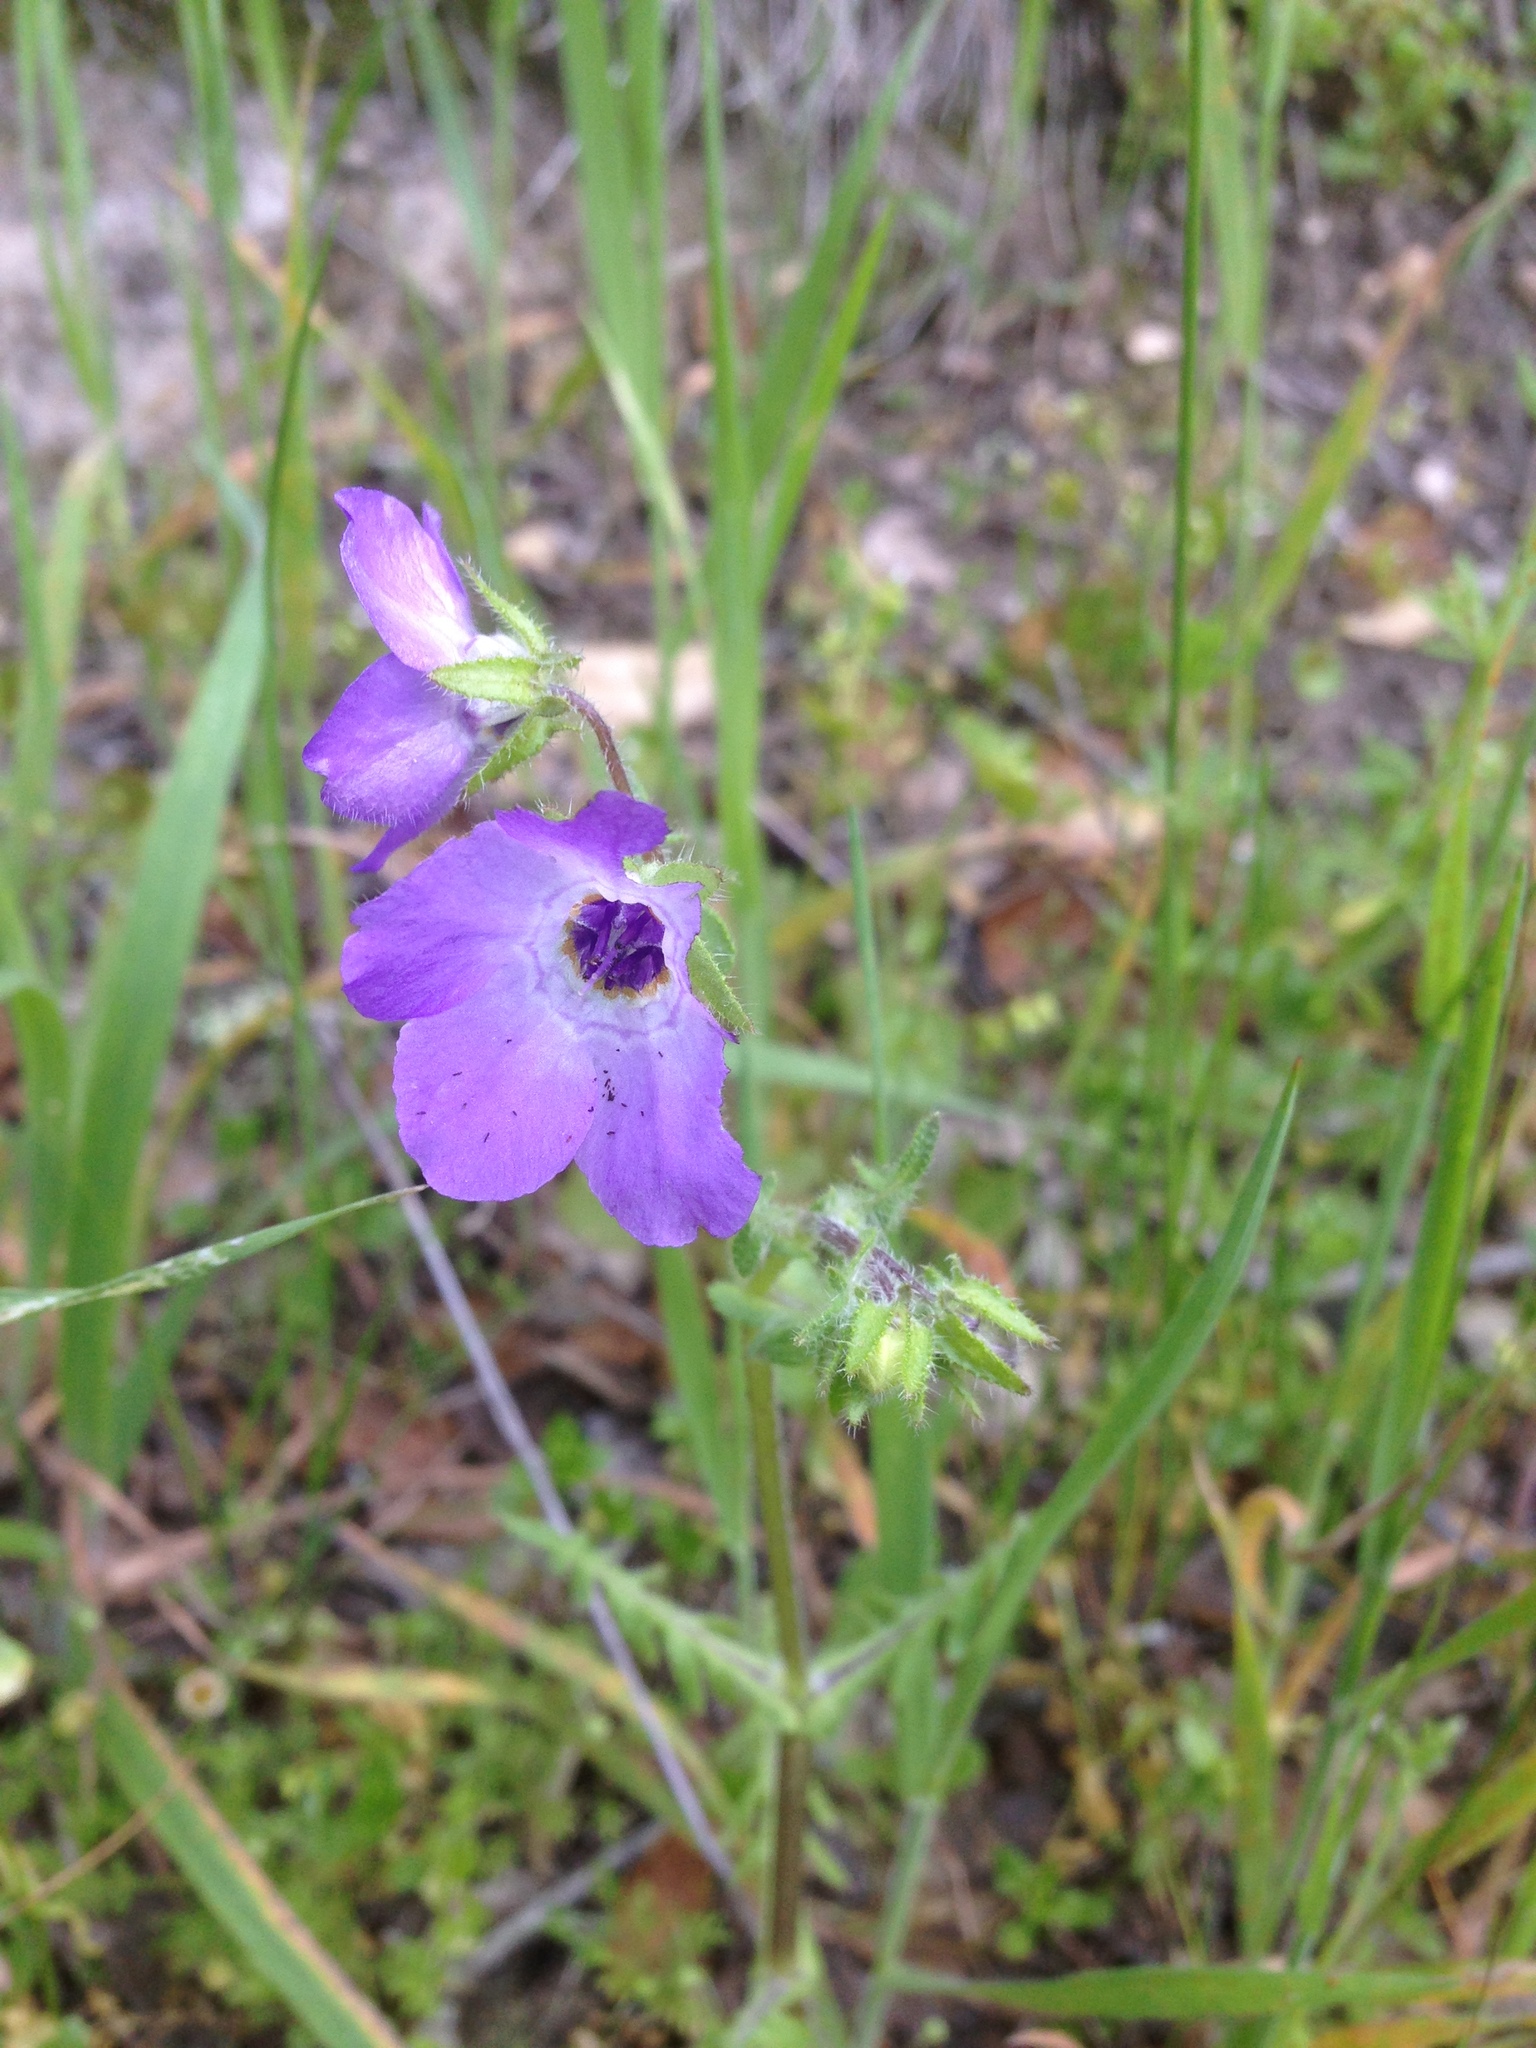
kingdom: Plantae
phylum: Tracheophyta
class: Magnoliopsida
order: Boraginales
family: Hydrophyllaceae
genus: Pholistoma
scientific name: Pholistoma auritum
